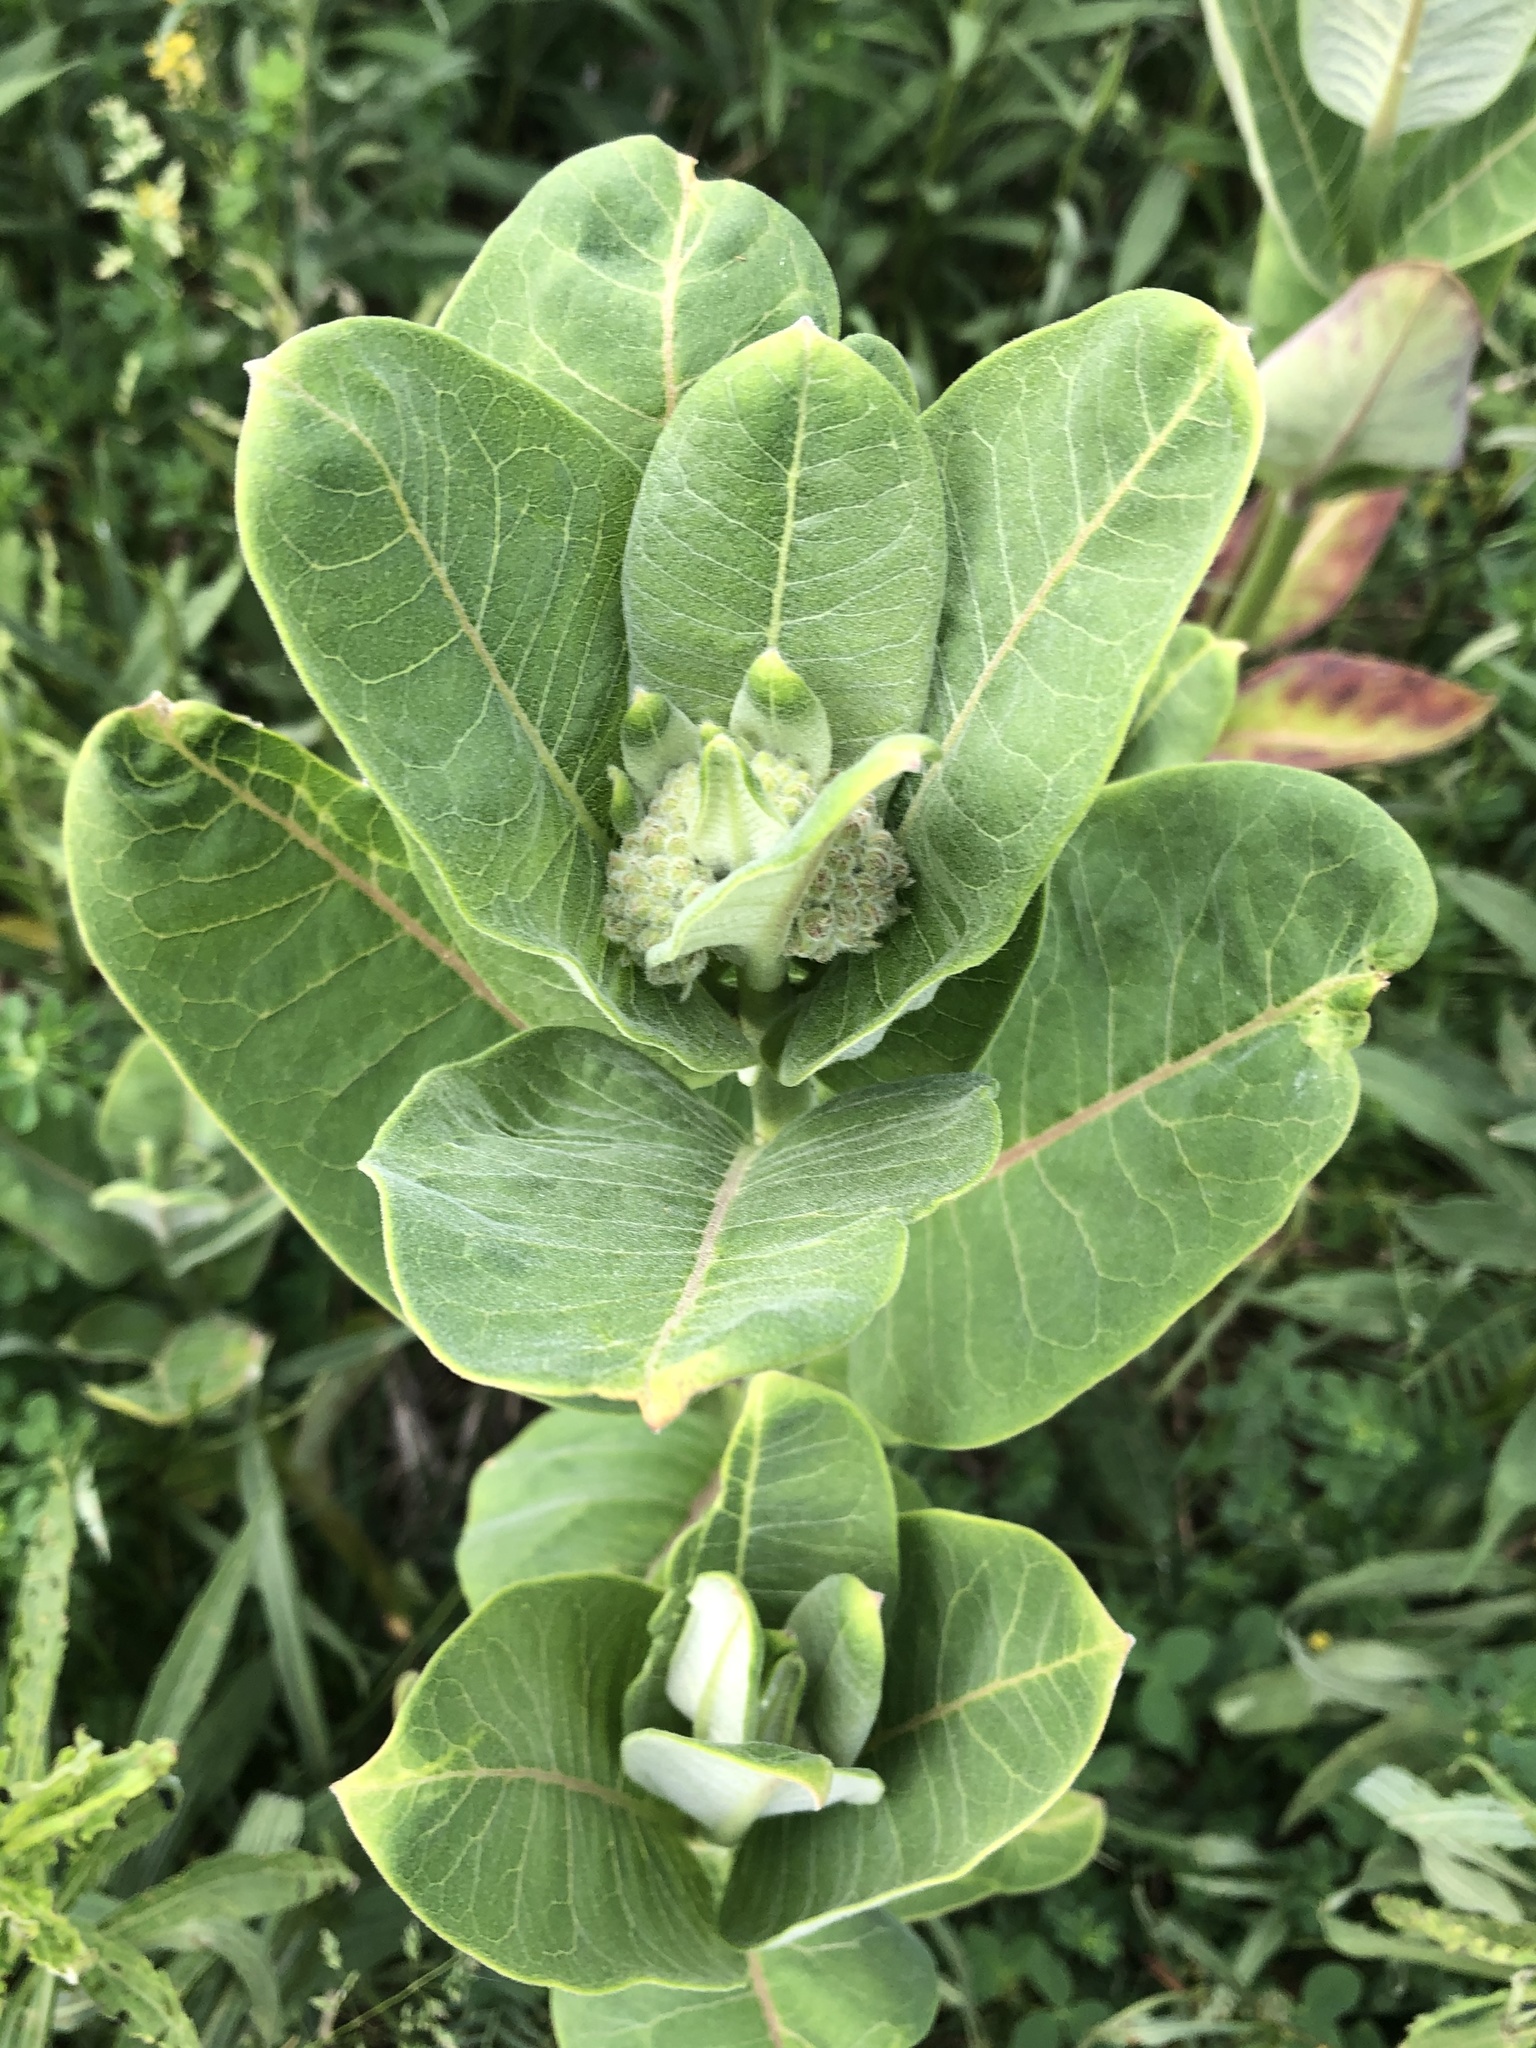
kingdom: Plantae
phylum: Tracheophyta
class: Magnoliopsida
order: Gentianales
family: Apocynaceae
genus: Asclepias
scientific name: Asclepias syriaca
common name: Common milkweed
